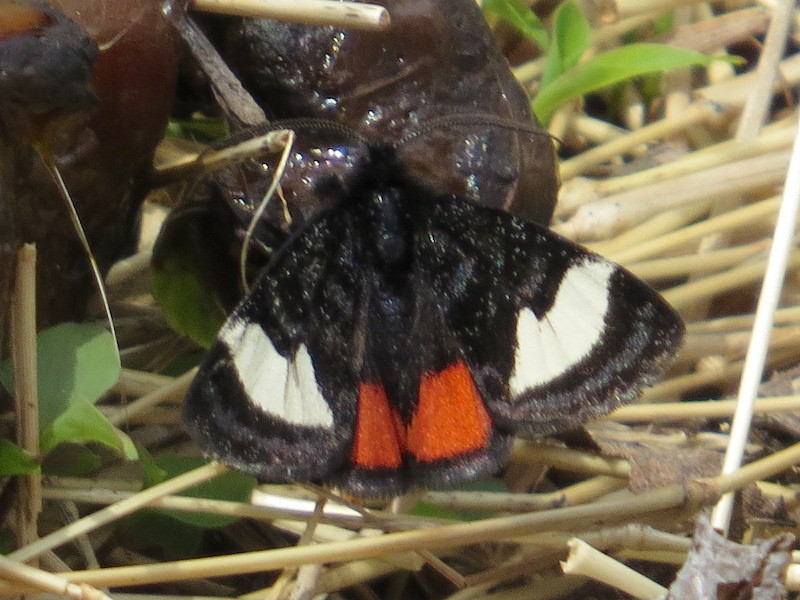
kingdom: Animalia
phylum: Arthropoda
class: Insecta
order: Lepidoptera
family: Noctuidae
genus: Psychomorpha
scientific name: Psychomorpha epimenis
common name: Grapevine epimenis moth
